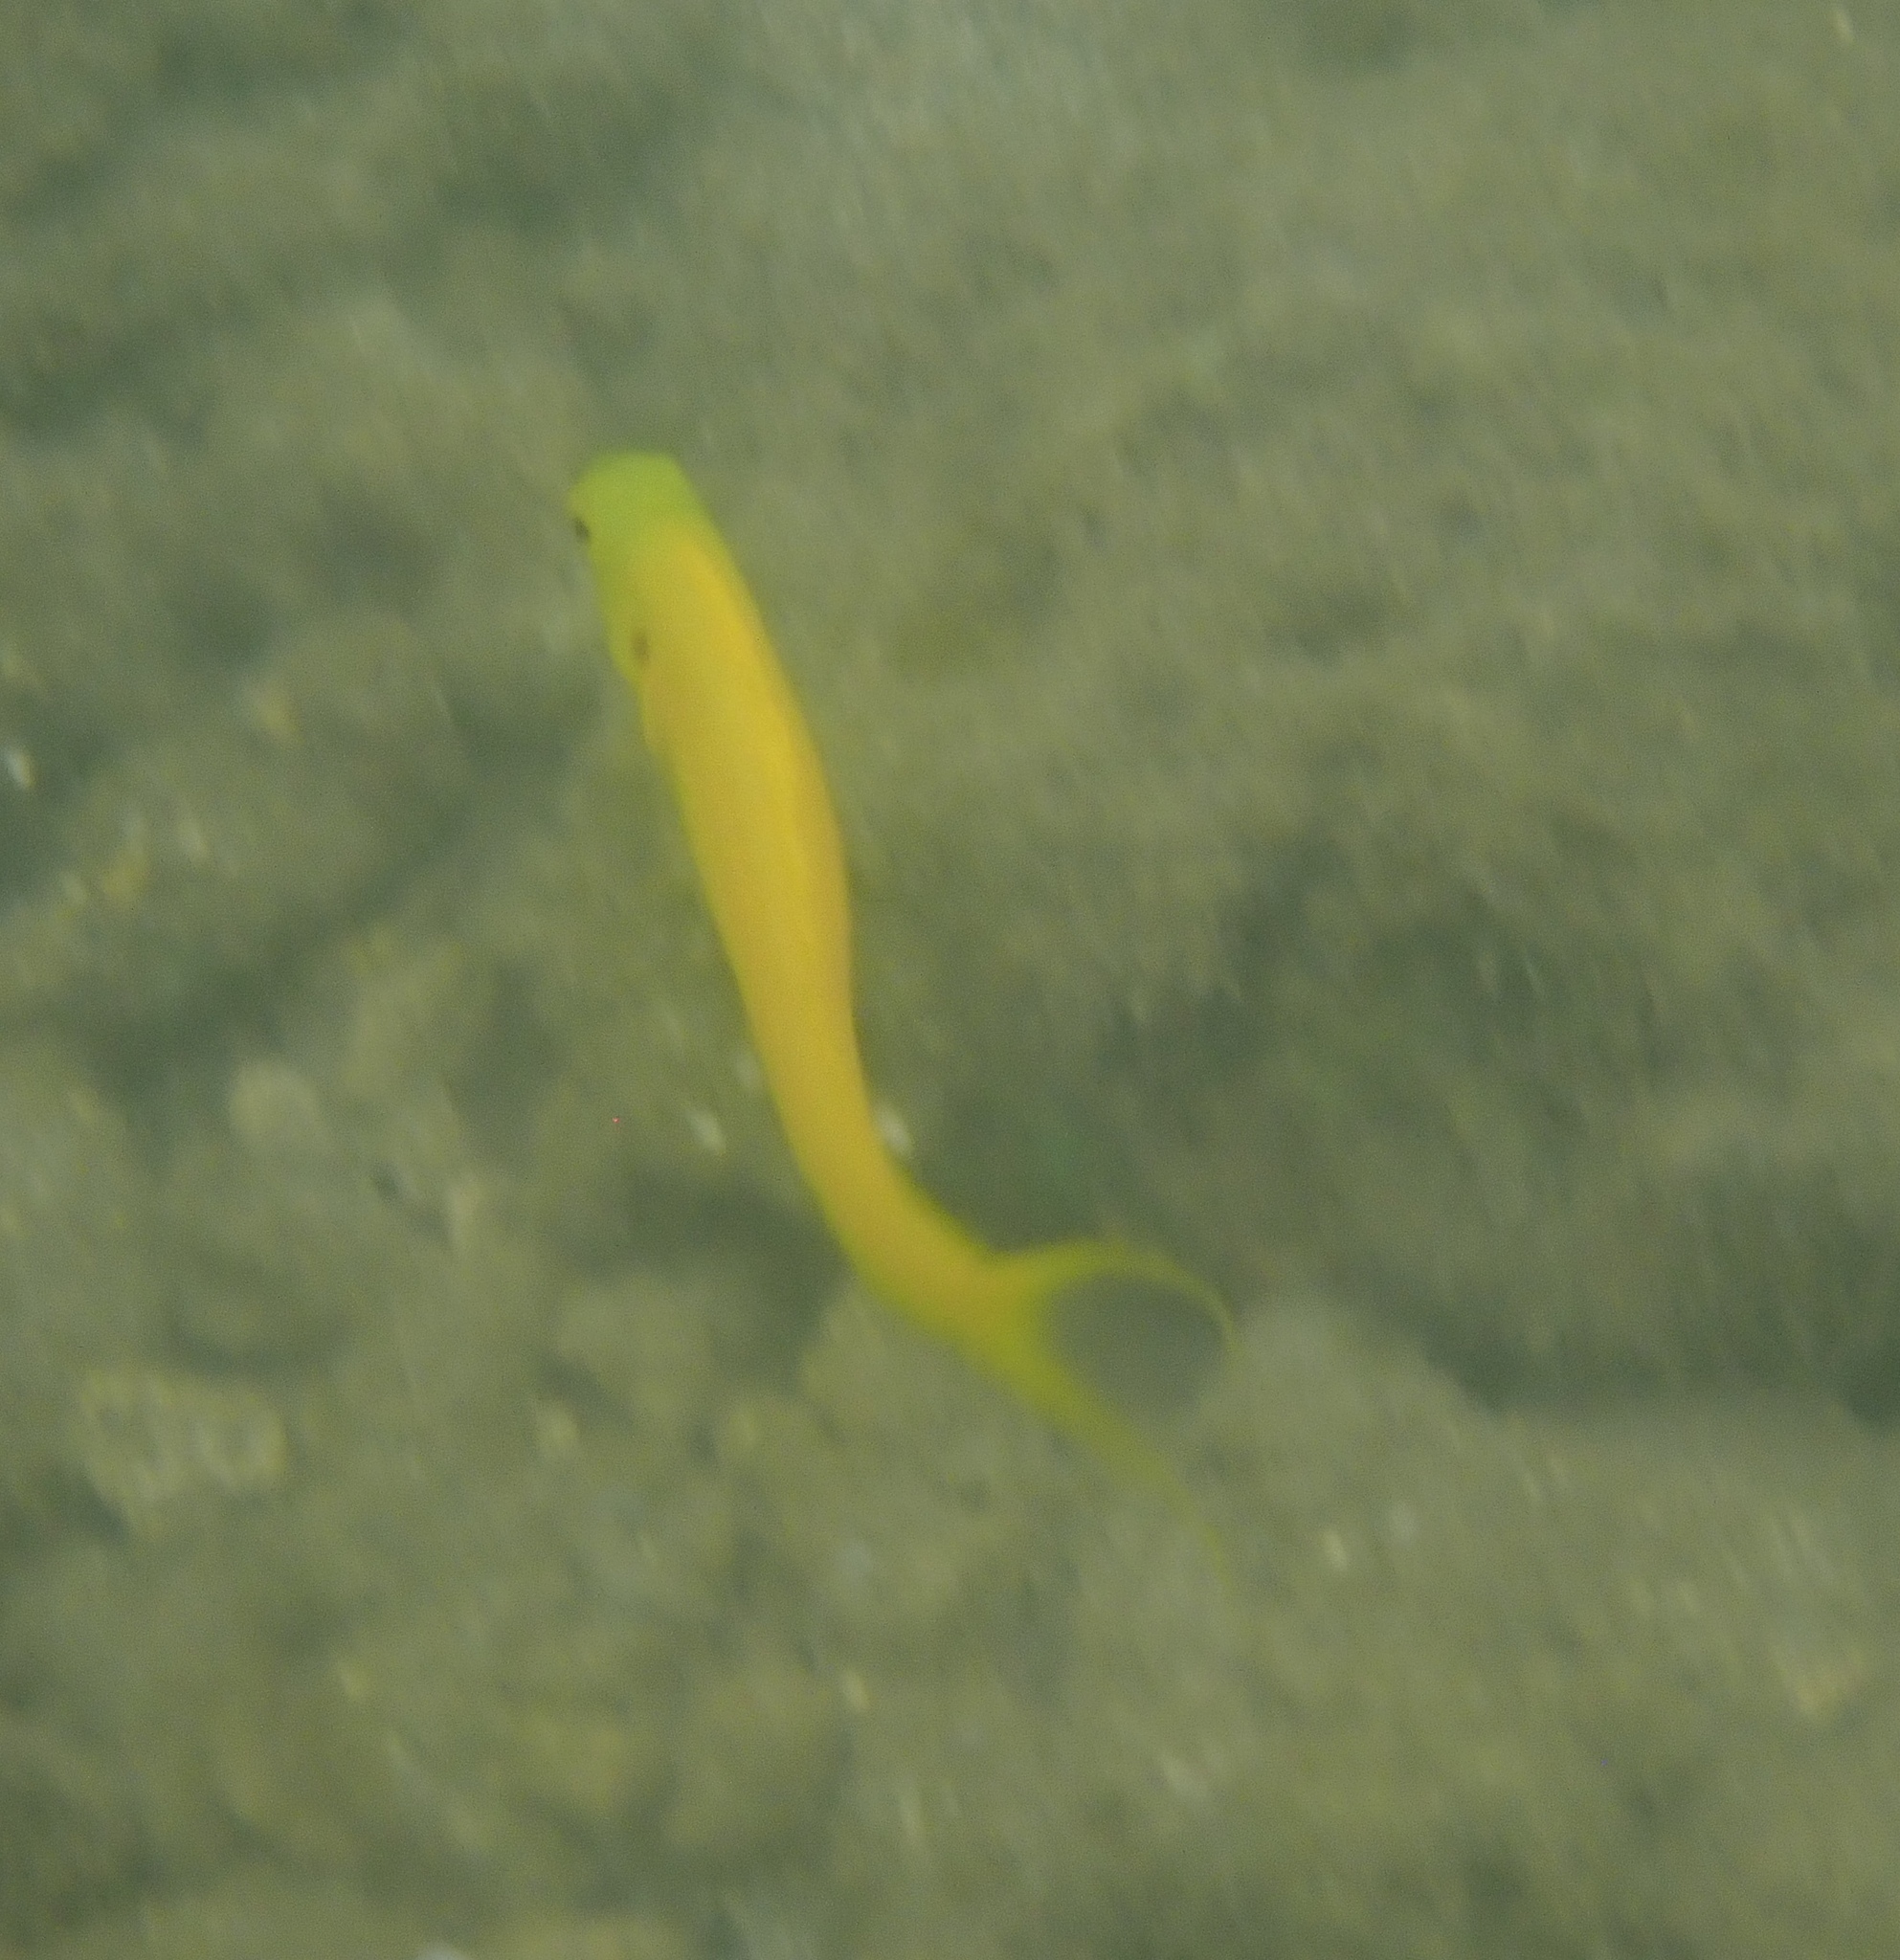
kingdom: Animalia
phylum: Chordata
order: Perciformes
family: Blenniidae
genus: Meiacanthus
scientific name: Meiacanthus oualanensis
